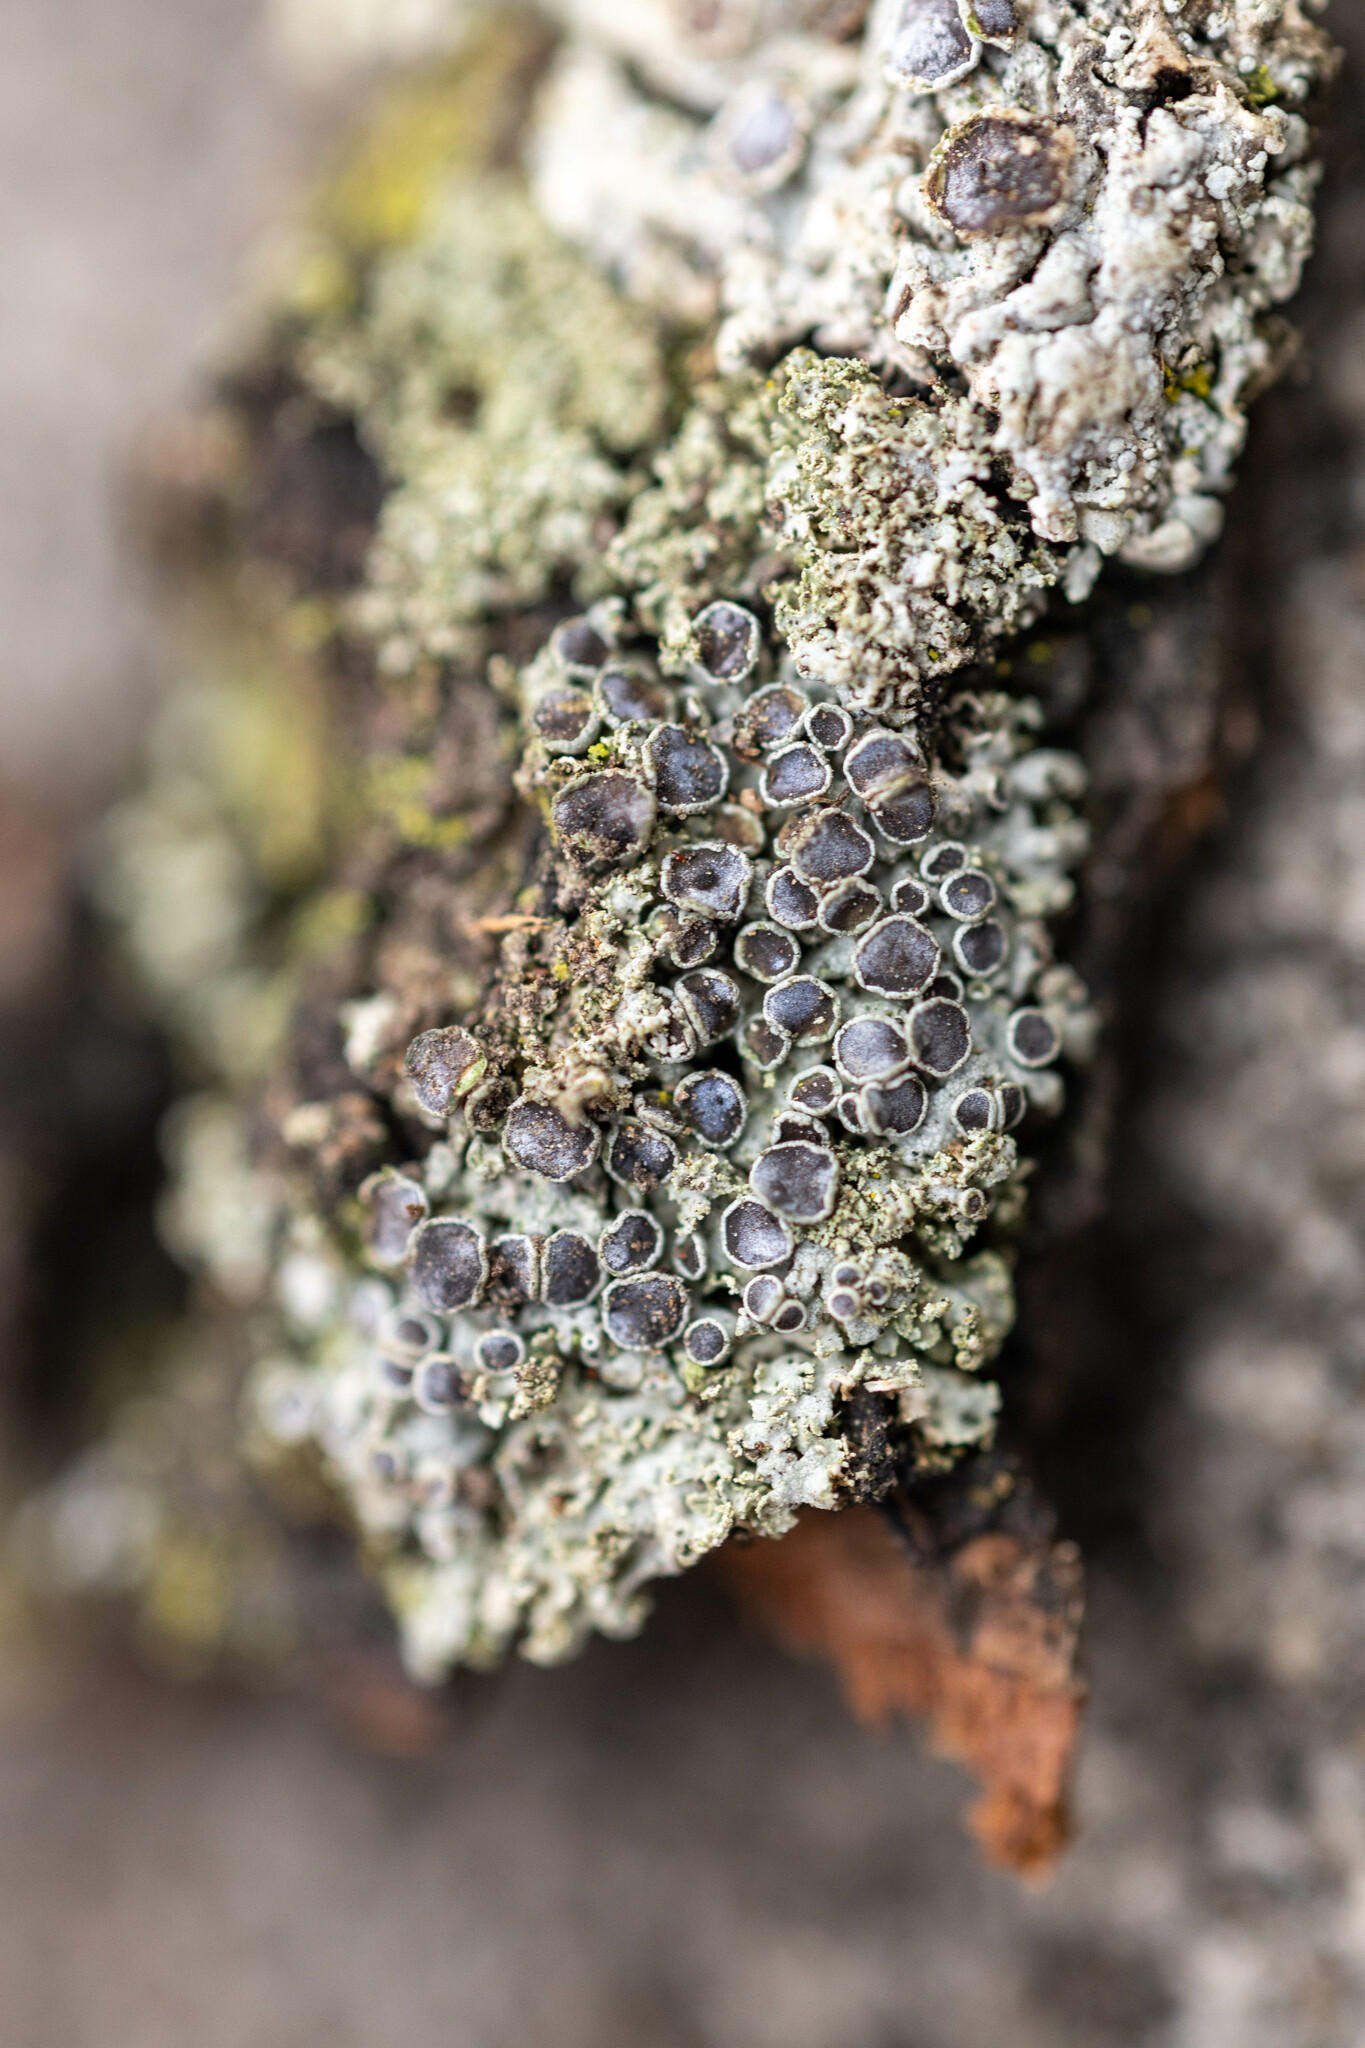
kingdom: Fungi
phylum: Ascomycota
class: Lecanoromycetes
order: Caliciales
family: Physciaceae
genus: Physcia
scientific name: Physcia millegrana
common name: Rosette lichen
